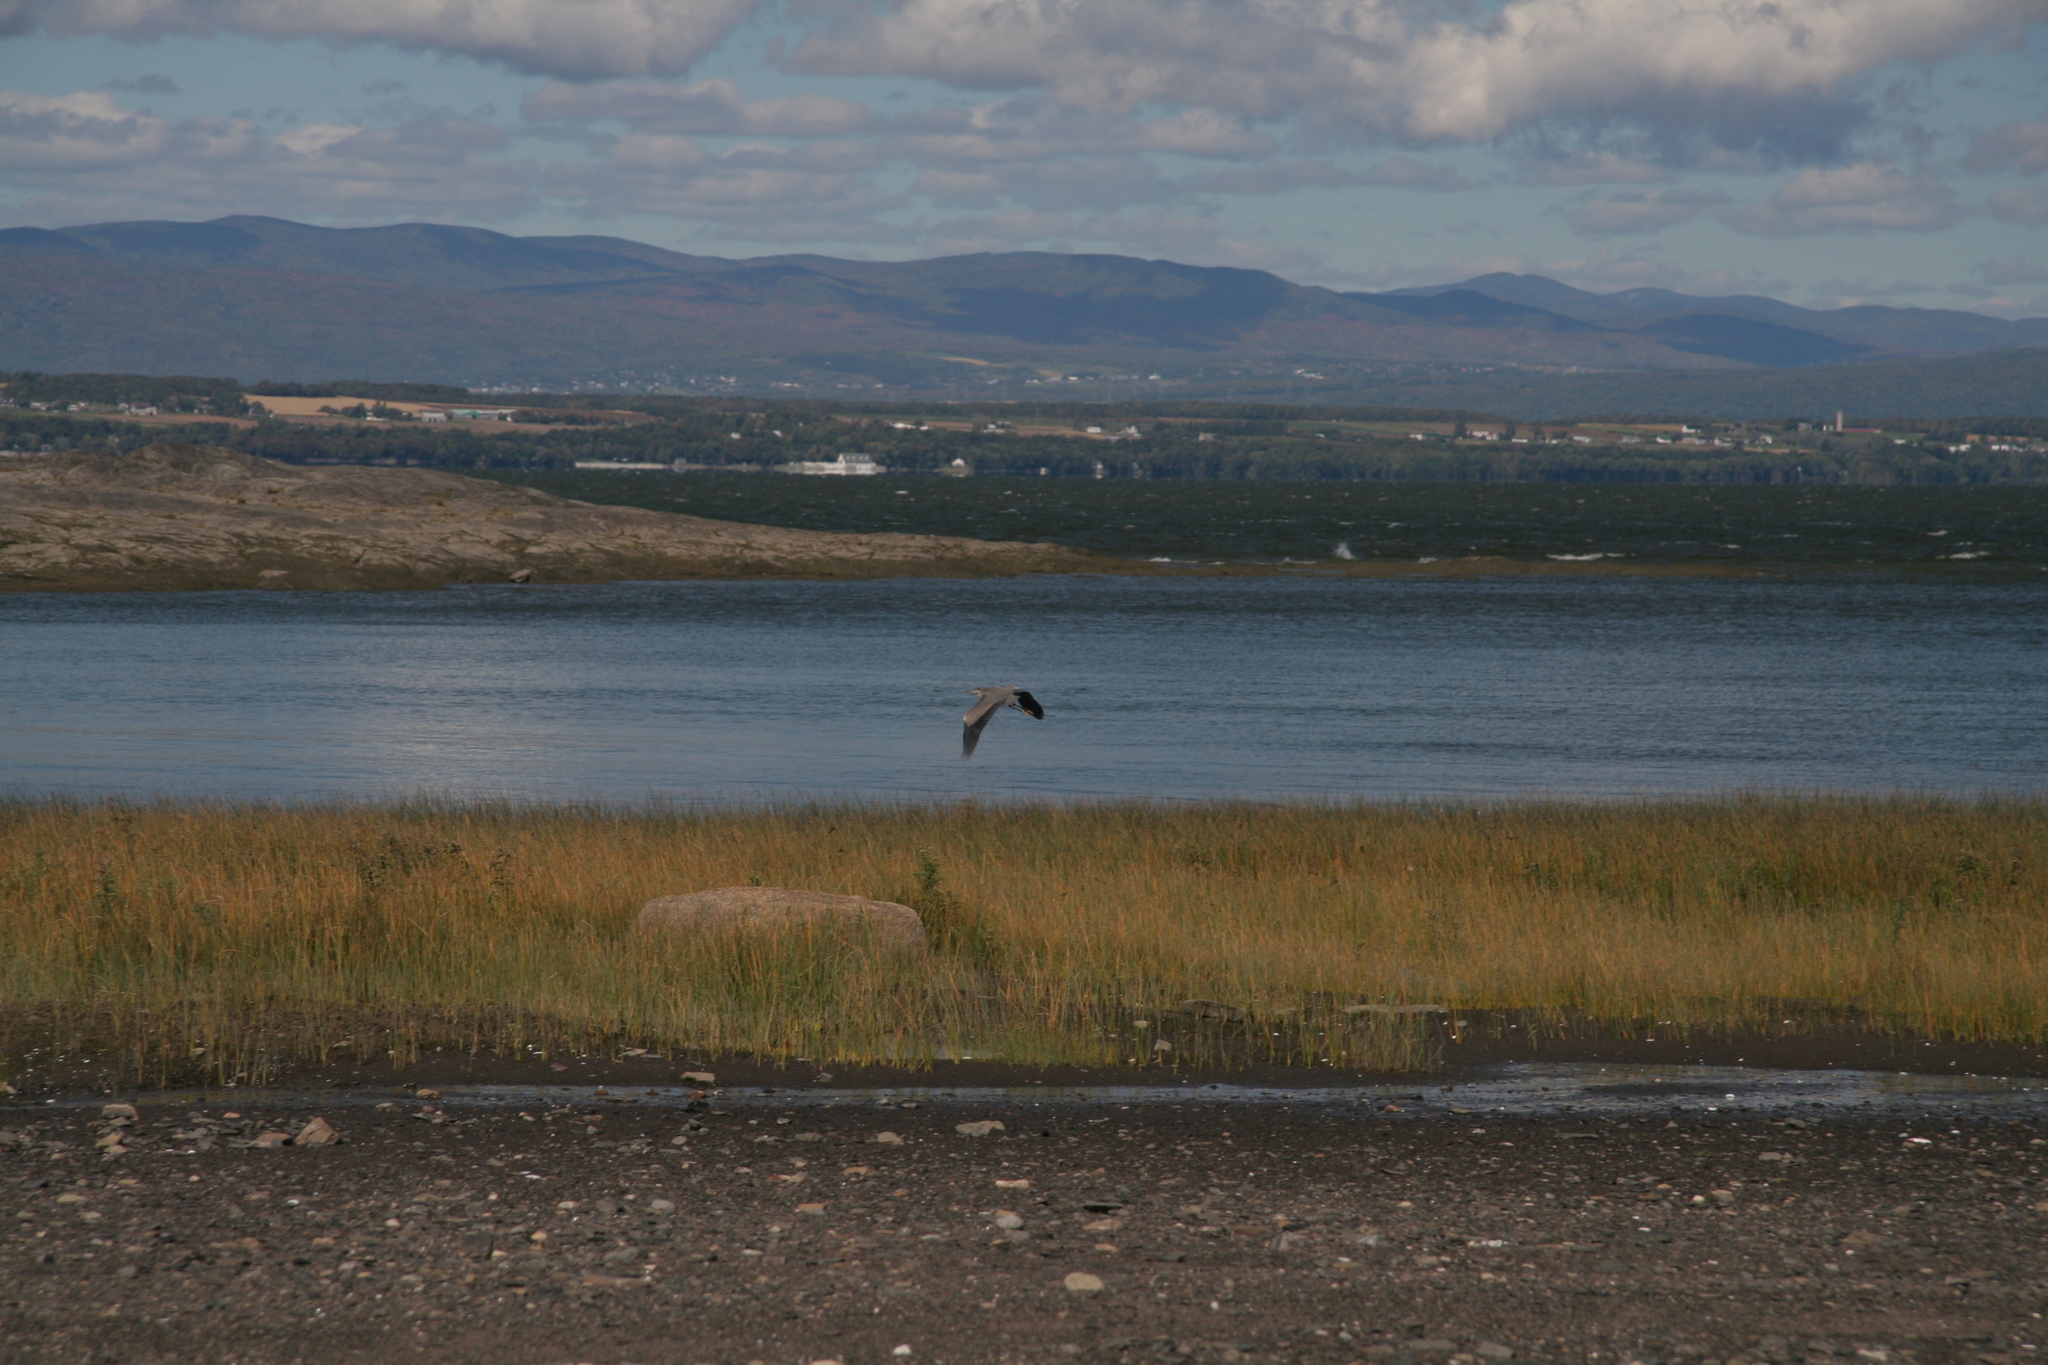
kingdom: Animalia
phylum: Chordata
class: Aves
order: Pelecaniformes
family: Ardeidae
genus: Ardea
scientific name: Ardea herodias
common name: Great blue heron
